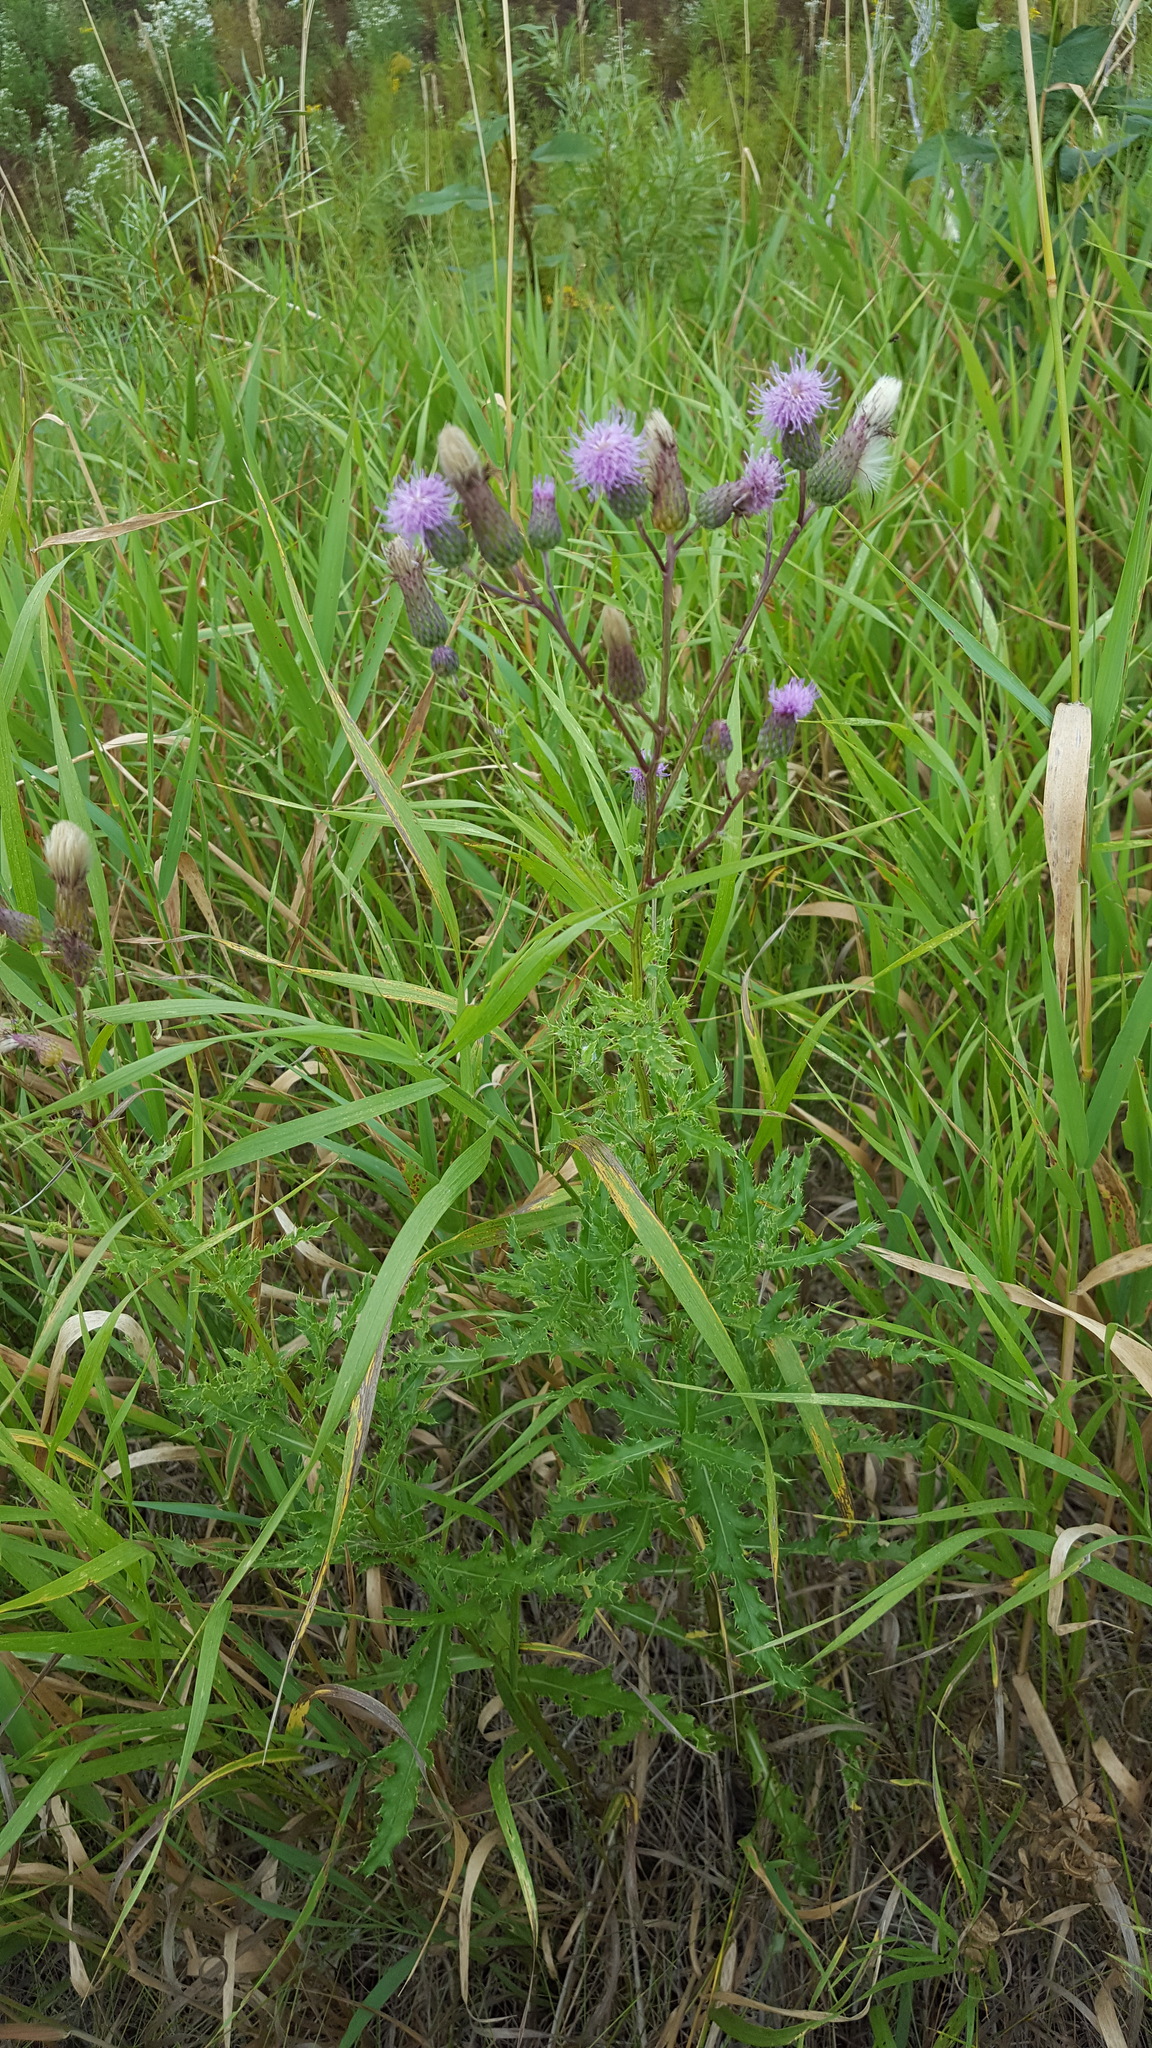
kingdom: Plantae
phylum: Tracheophyta
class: Magnoliopsida
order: Asterales
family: Asteraceae
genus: Cirsium
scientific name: Cirsium arvense
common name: Creeping thistle
